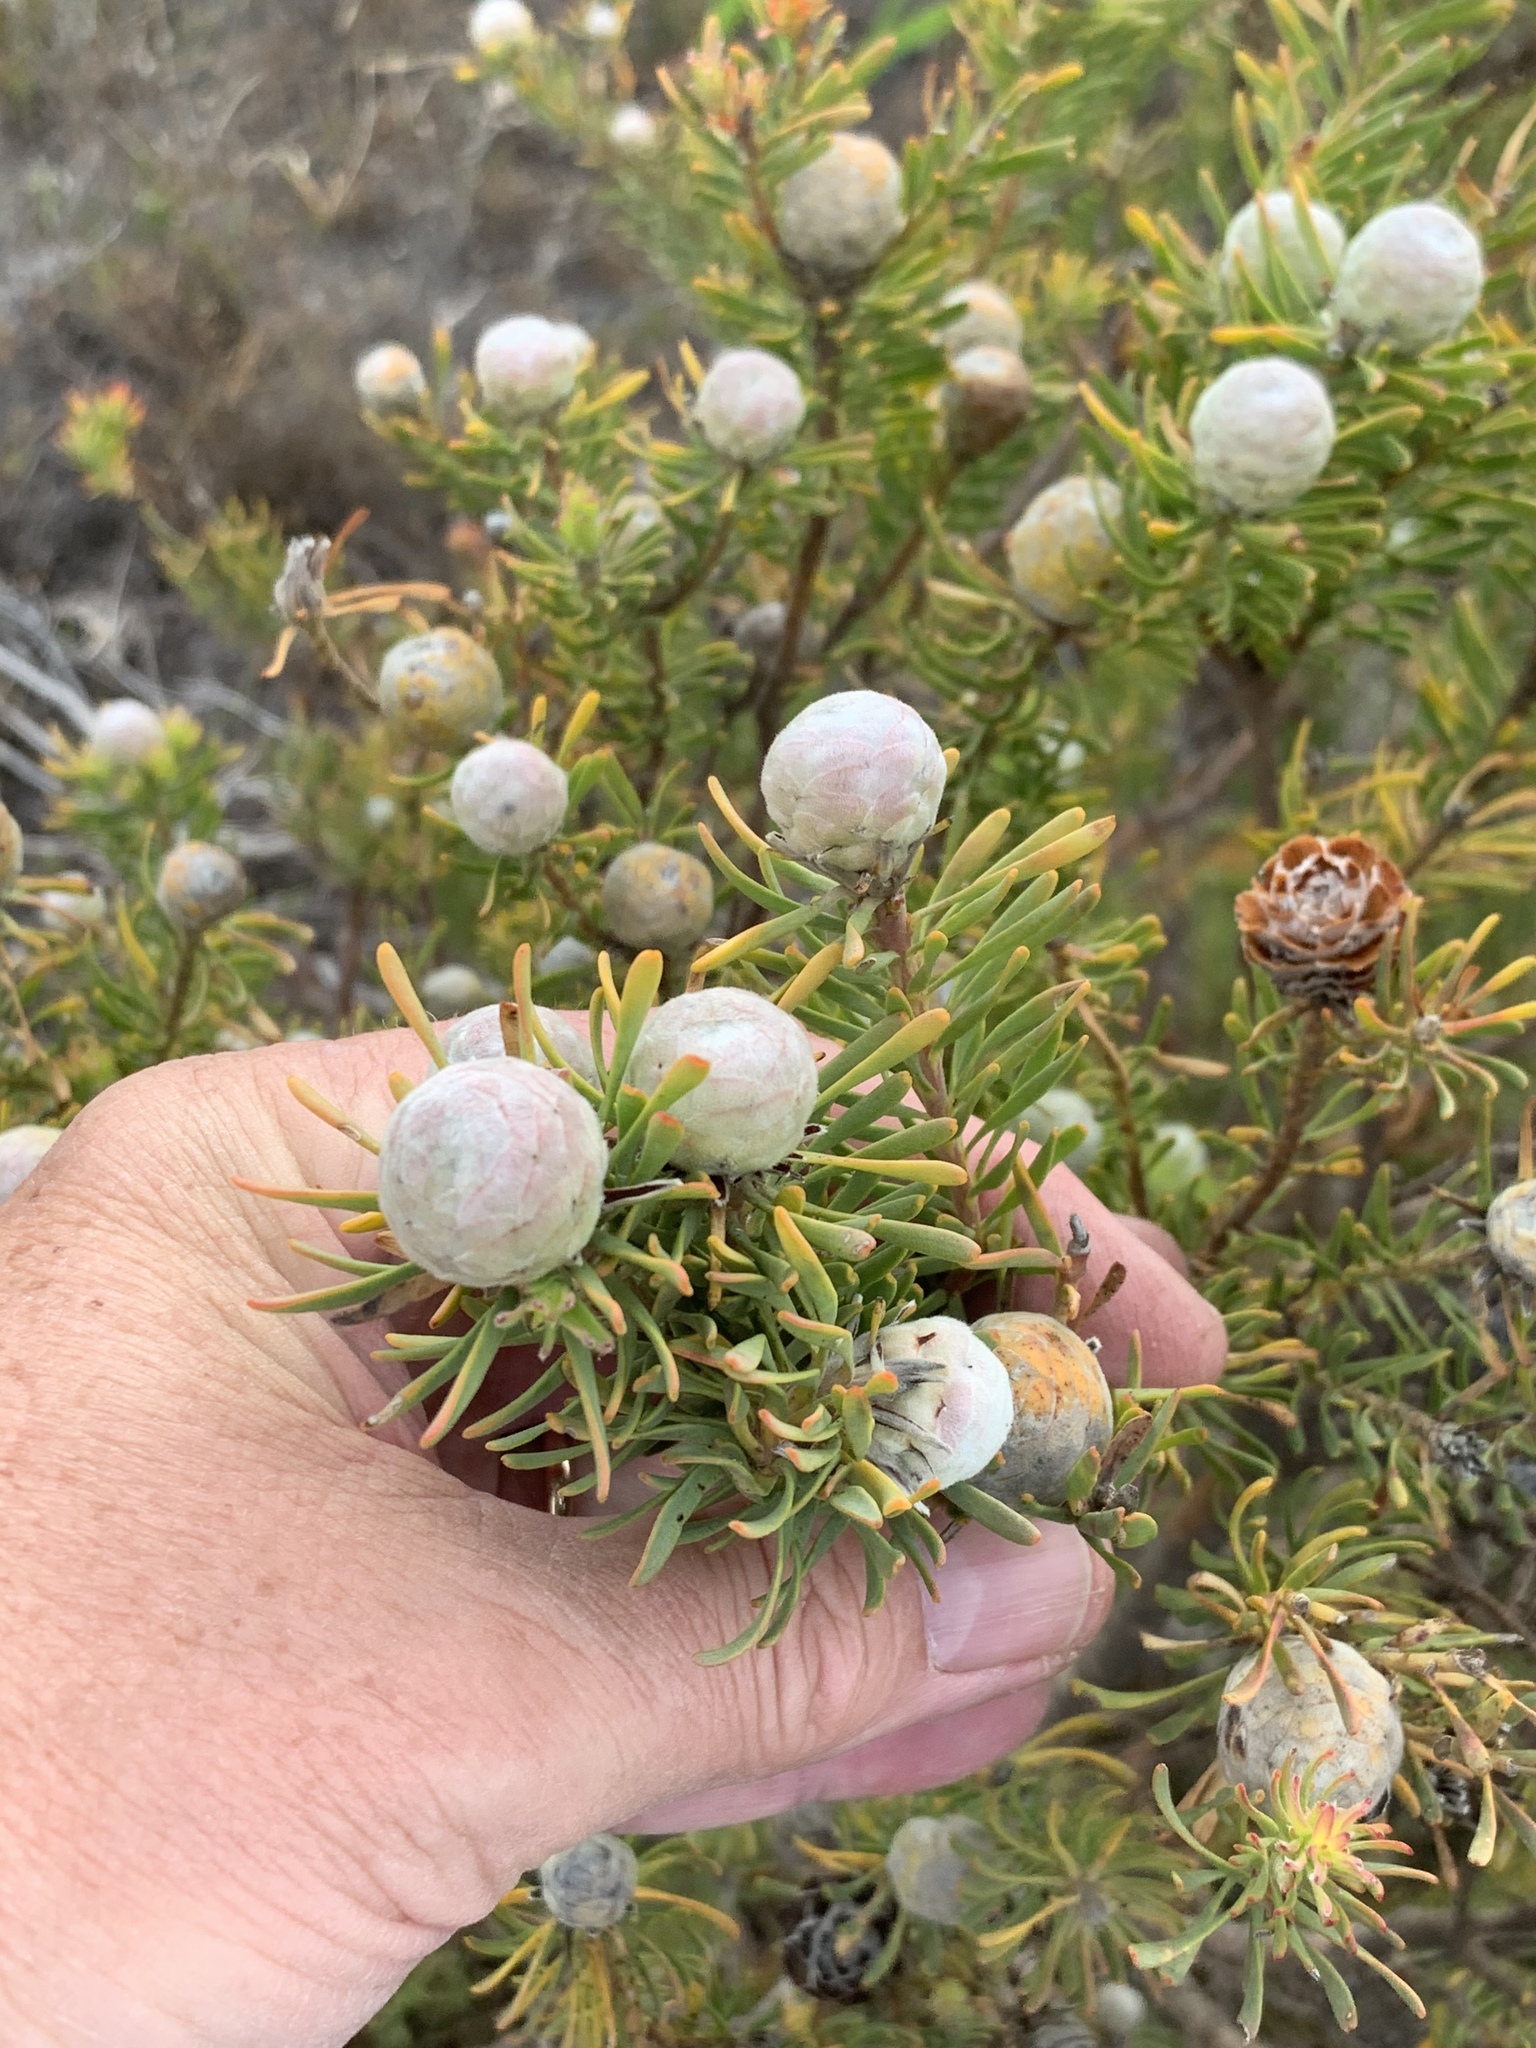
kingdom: Plantae
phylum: Tracheophyta
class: Magnoliopsida
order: Proteales
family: Proteaceae
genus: Leucadendron
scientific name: Leucadendron linifolium
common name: Line-leaf conebush
